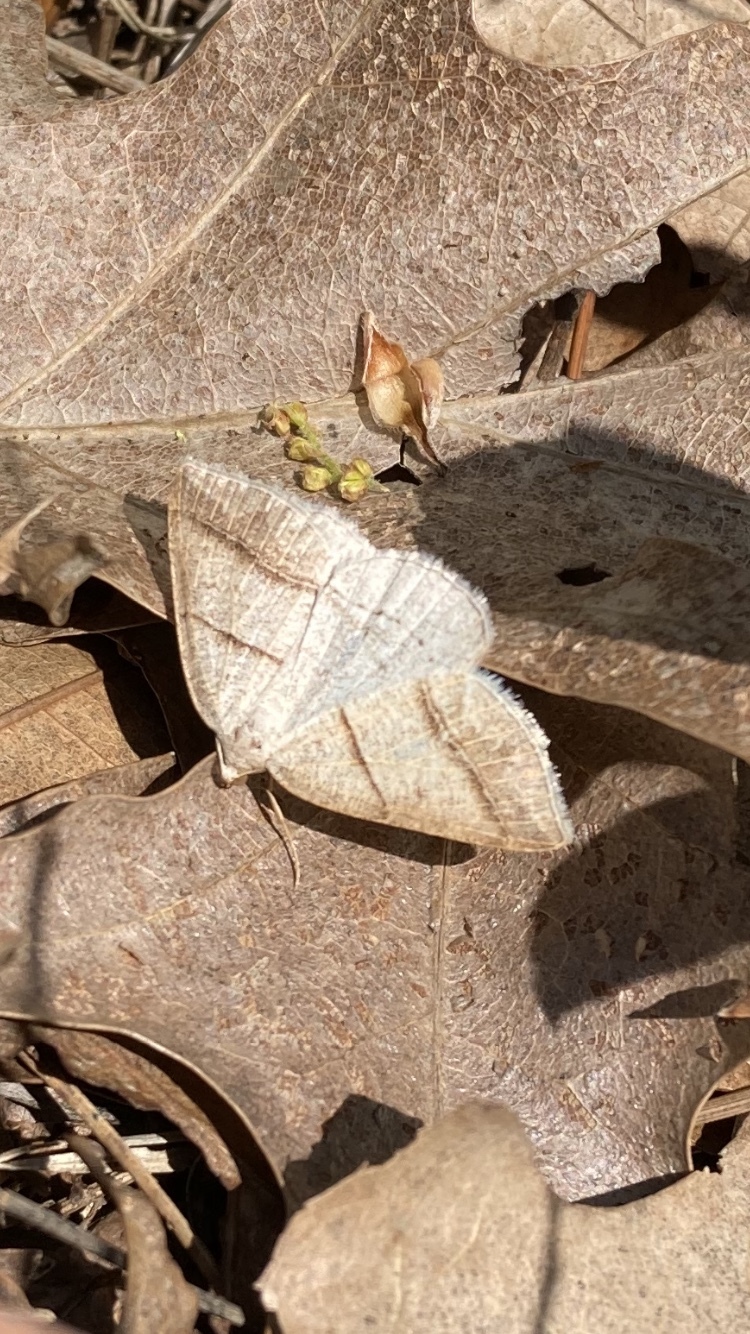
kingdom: Animalia
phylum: Arthropoda
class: Insecta
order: Lepidoptera
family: Pterophoridae
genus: Pterophorus
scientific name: Pterophorus Petrophora subaequaria
